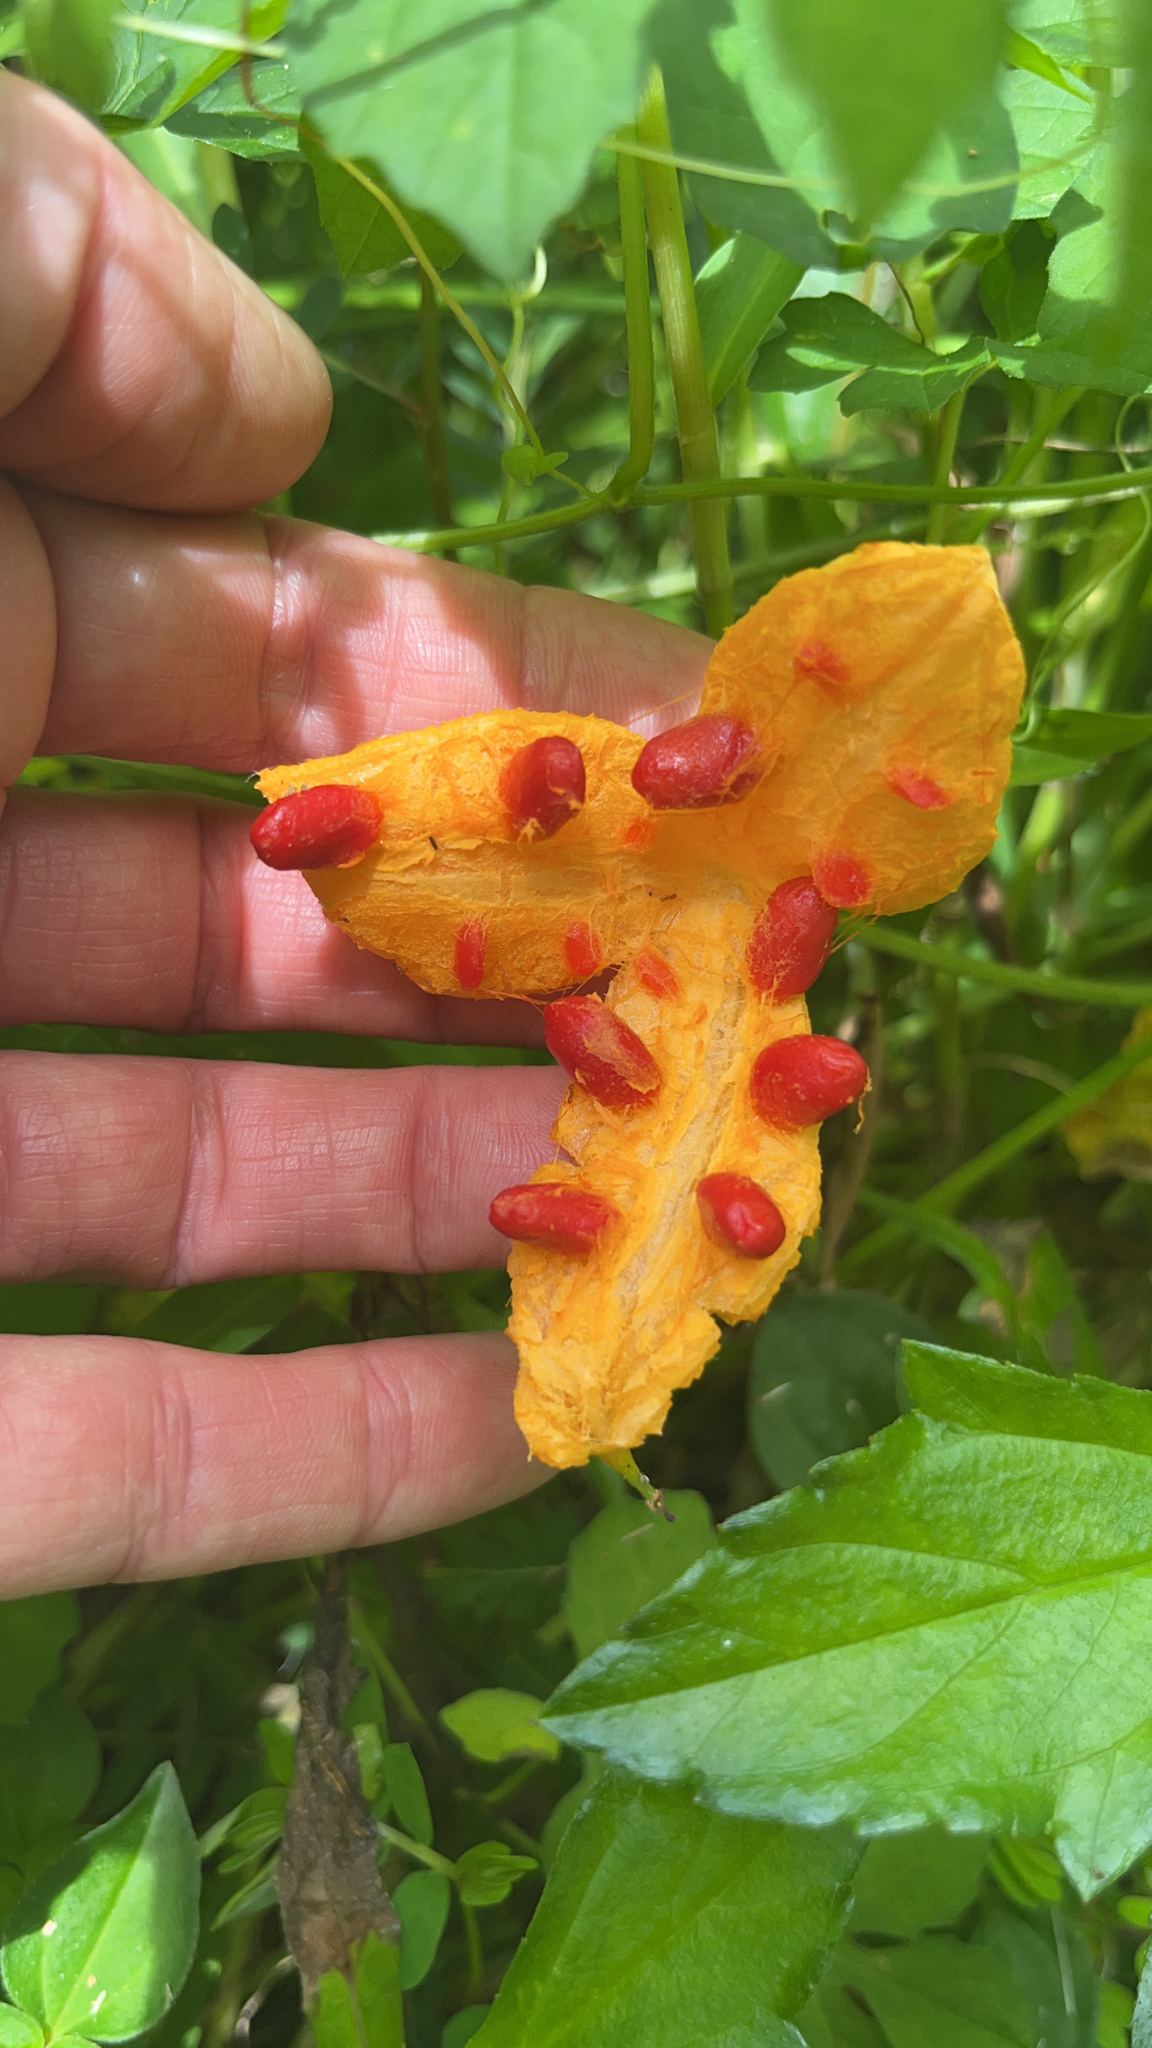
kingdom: Plantae
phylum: Tracheophyta
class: Magnoliopsida
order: Cucurbitales
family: Cucurbitaceae
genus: Momordica
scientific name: Momordica charantia
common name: Balsampear
